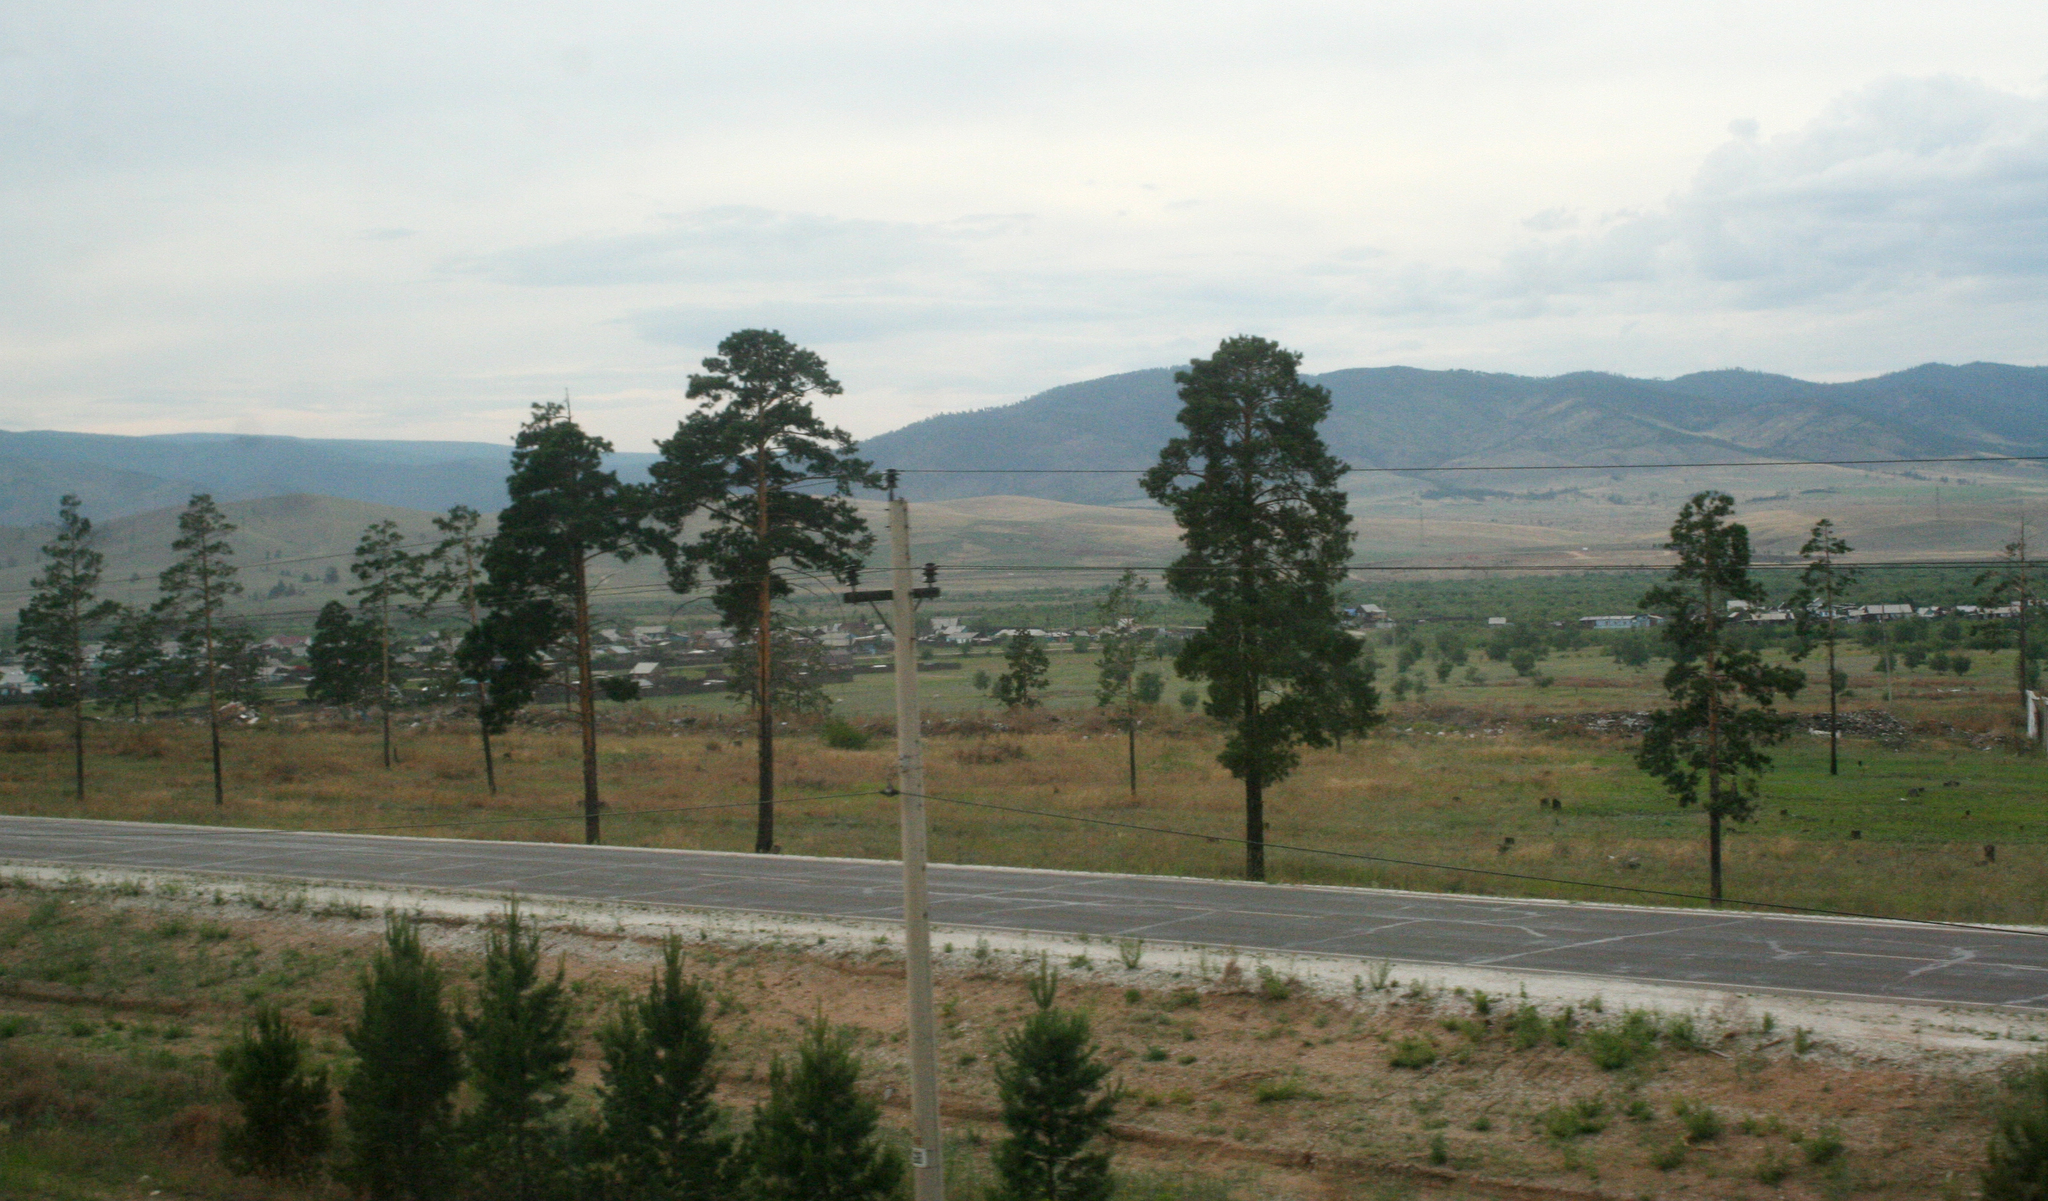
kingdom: Plantae
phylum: Tracheophyta
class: Pinopsida
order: Pinales
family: Pinaceae
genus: Pinus
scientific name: Pinus sylvestris
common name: Scots pine
